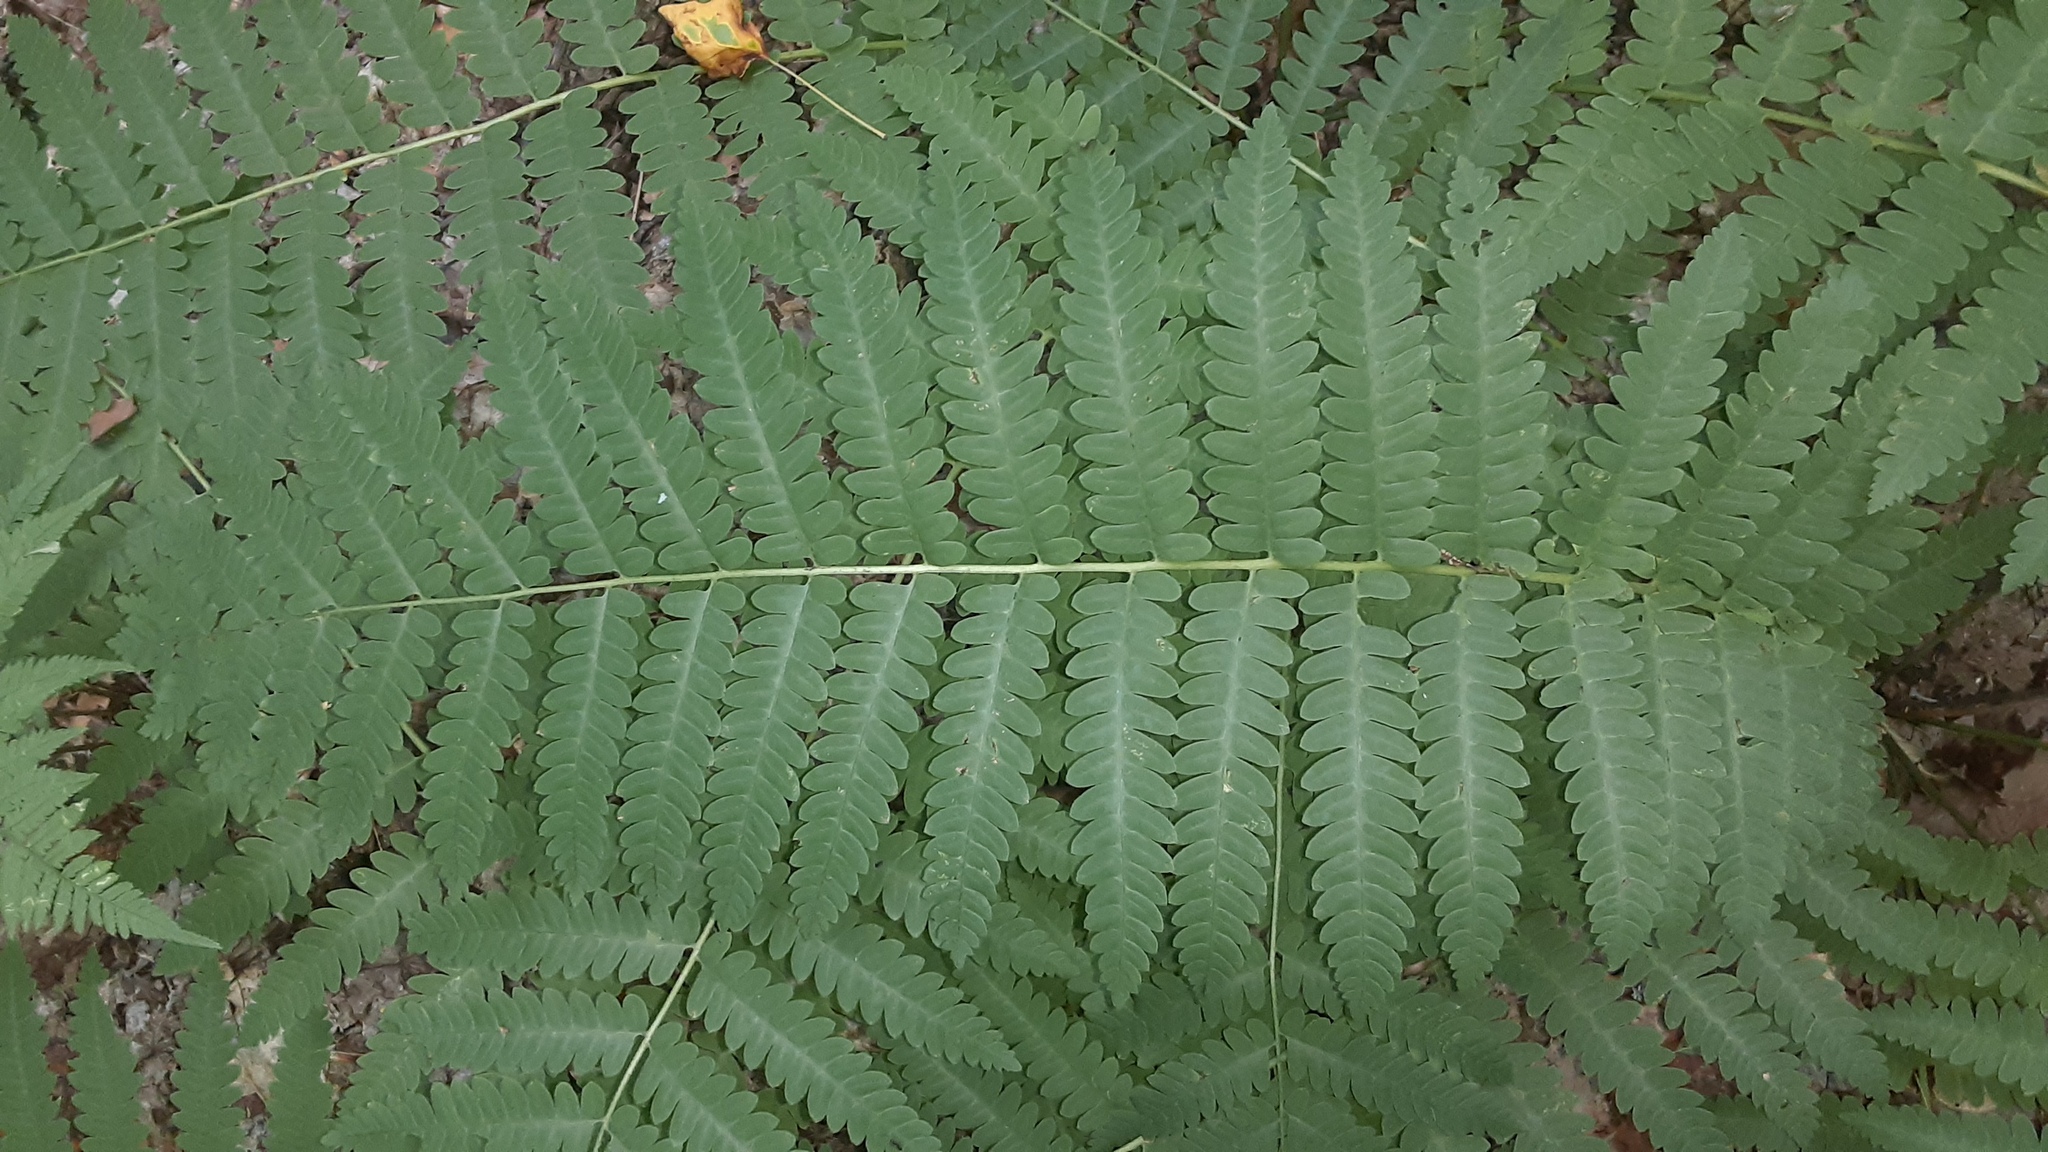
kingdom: Plantae
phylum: Tracheophyta
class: Polypodiopsida
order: Osmundales
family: Osmundaceae
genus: Claytosmunda
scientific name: Claytosmunda claytoniana
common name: Clayton's fern
